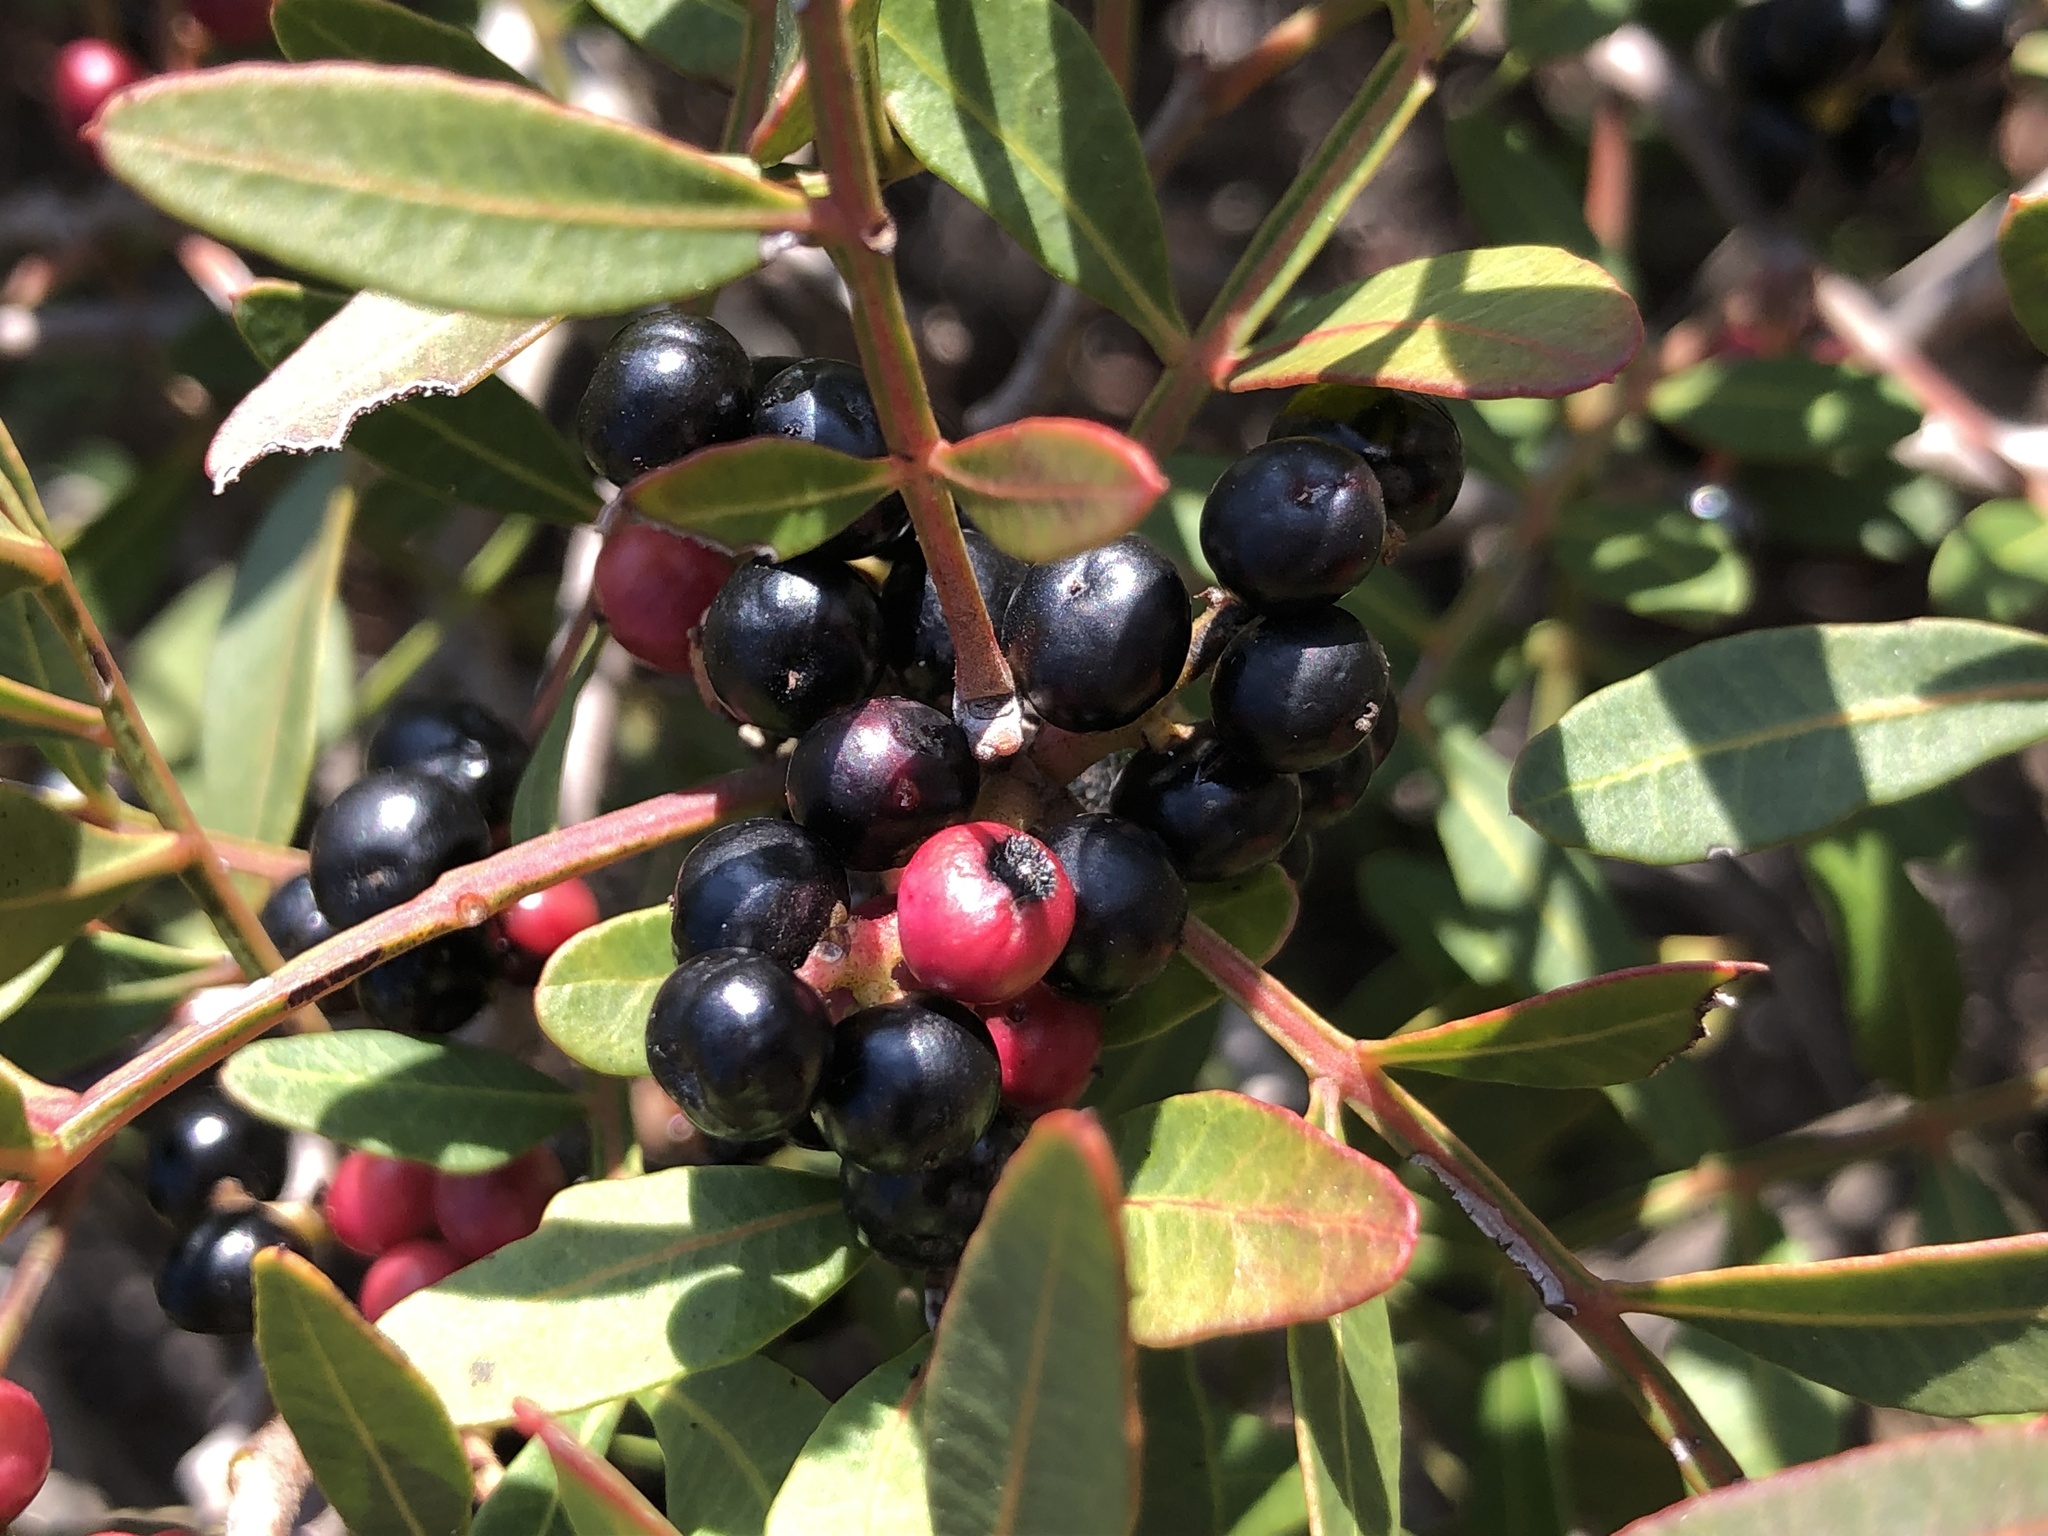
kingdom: Plantae
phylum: Tracheophyta
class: Magnoliopsida
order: Sapindales
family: Anacardiaceae
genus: Pistacia
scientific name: Pistacia lentiscus
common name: Lentisk
